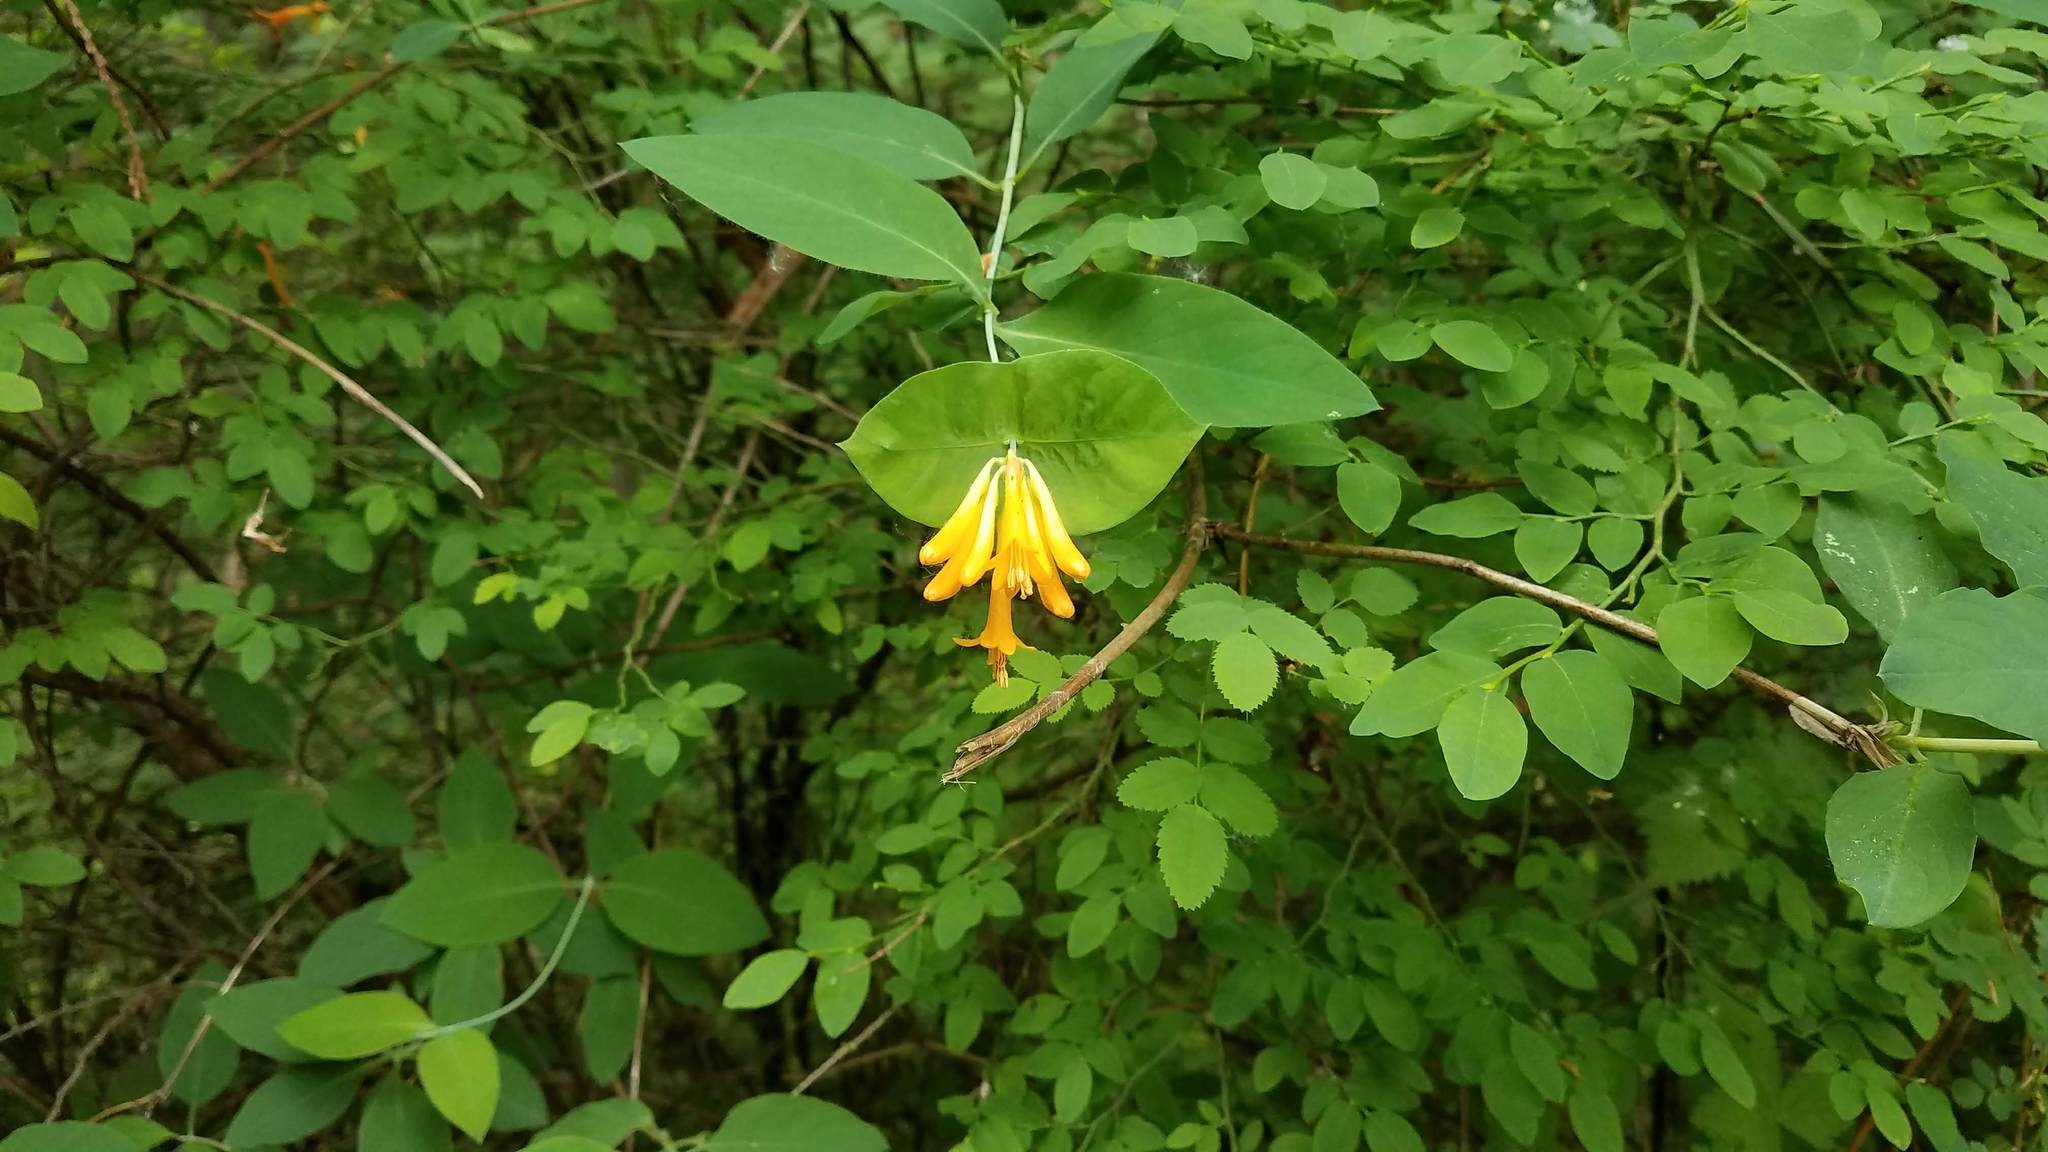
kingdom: Plantae
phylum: Tracheophyta
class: Magnoliopsida
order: Dipsacales
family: Caprifoliaceae
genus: Lonicera
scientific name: Lonicera ciliosa
